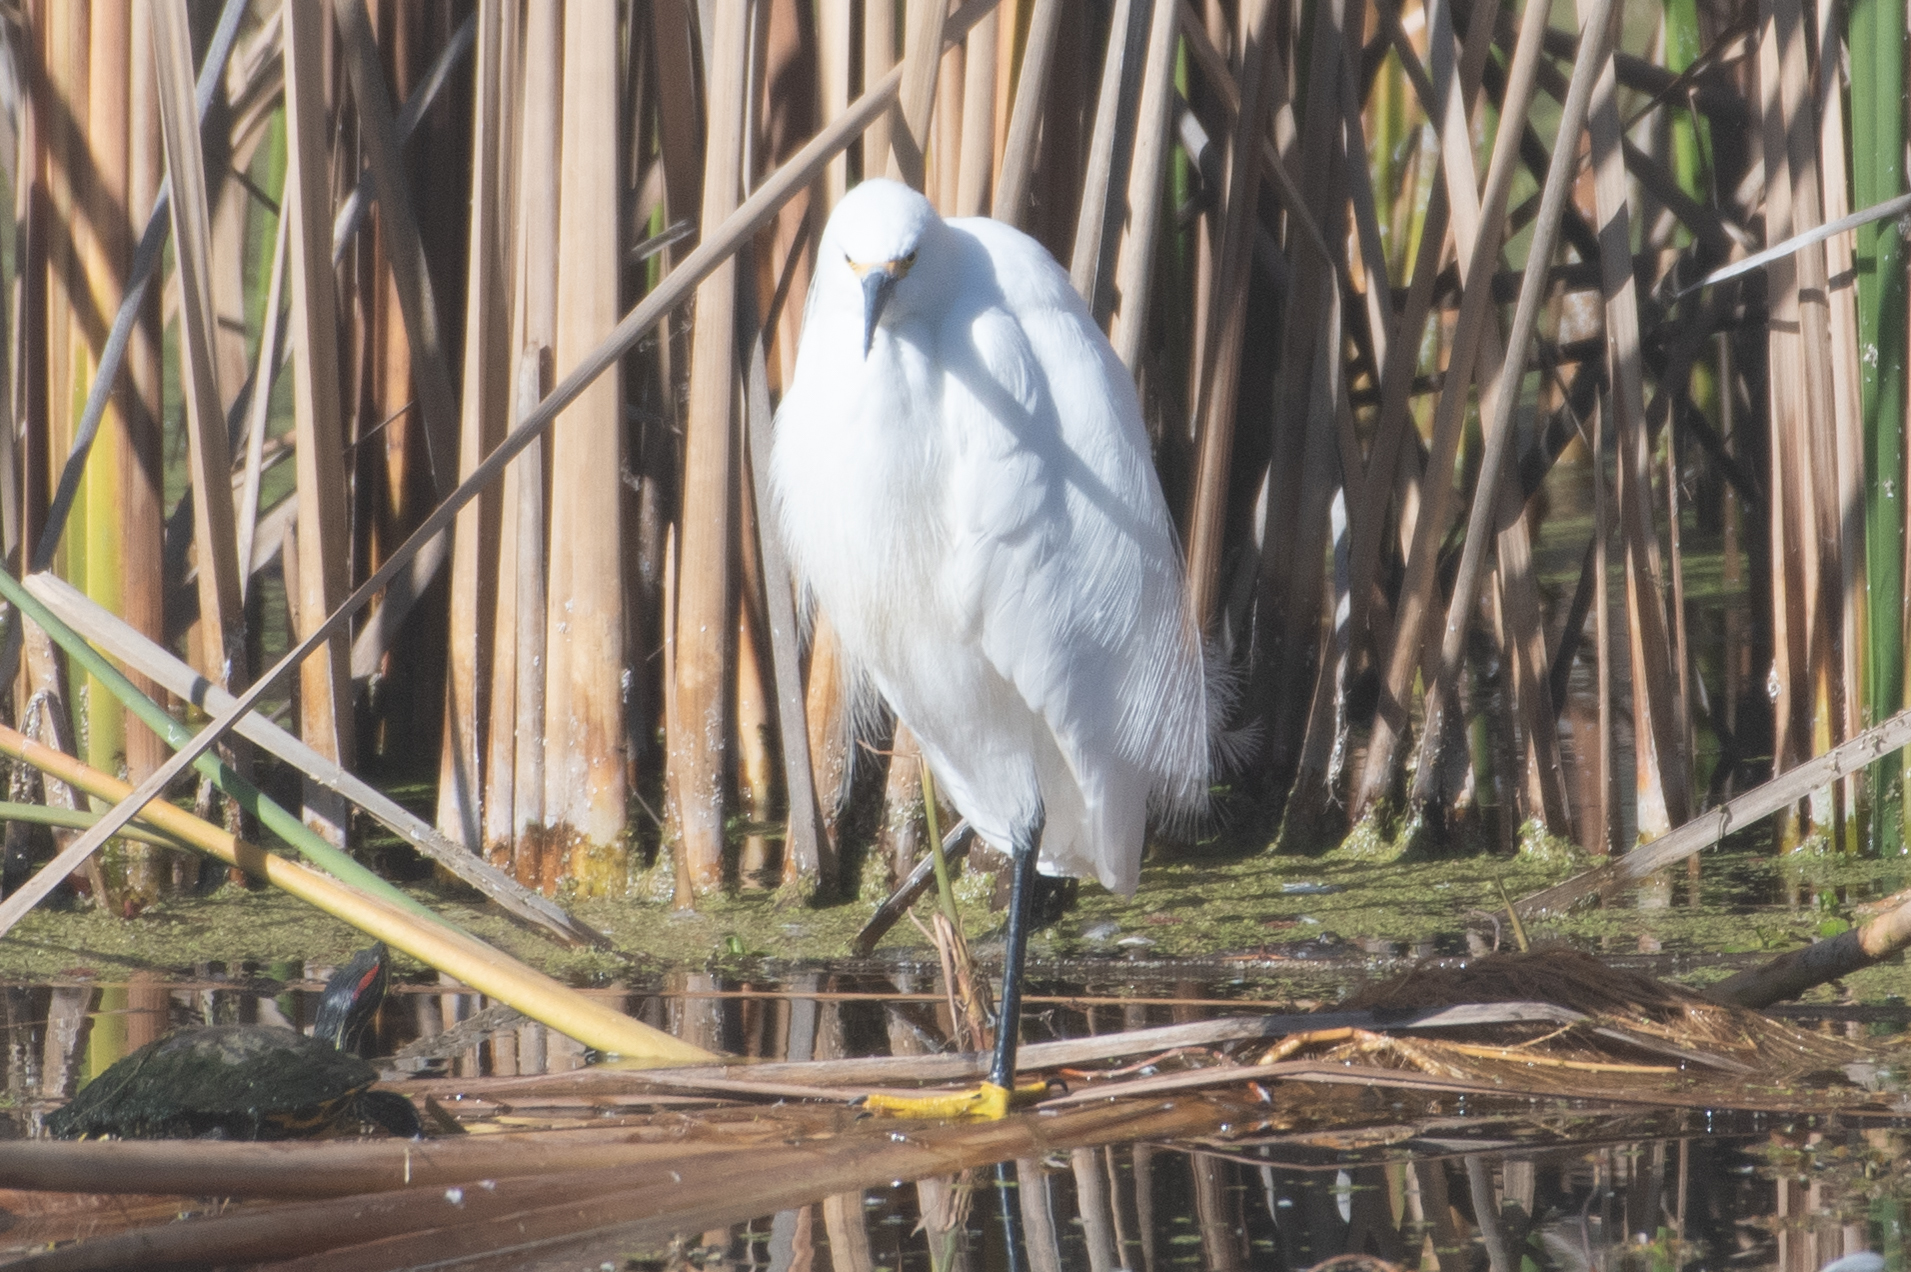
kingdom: Animalia
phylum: Chordata
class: Aves
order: Pelecaniformes
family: Ardeidae
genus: Egretta
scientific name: Egretta thula
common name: Snowy egret
